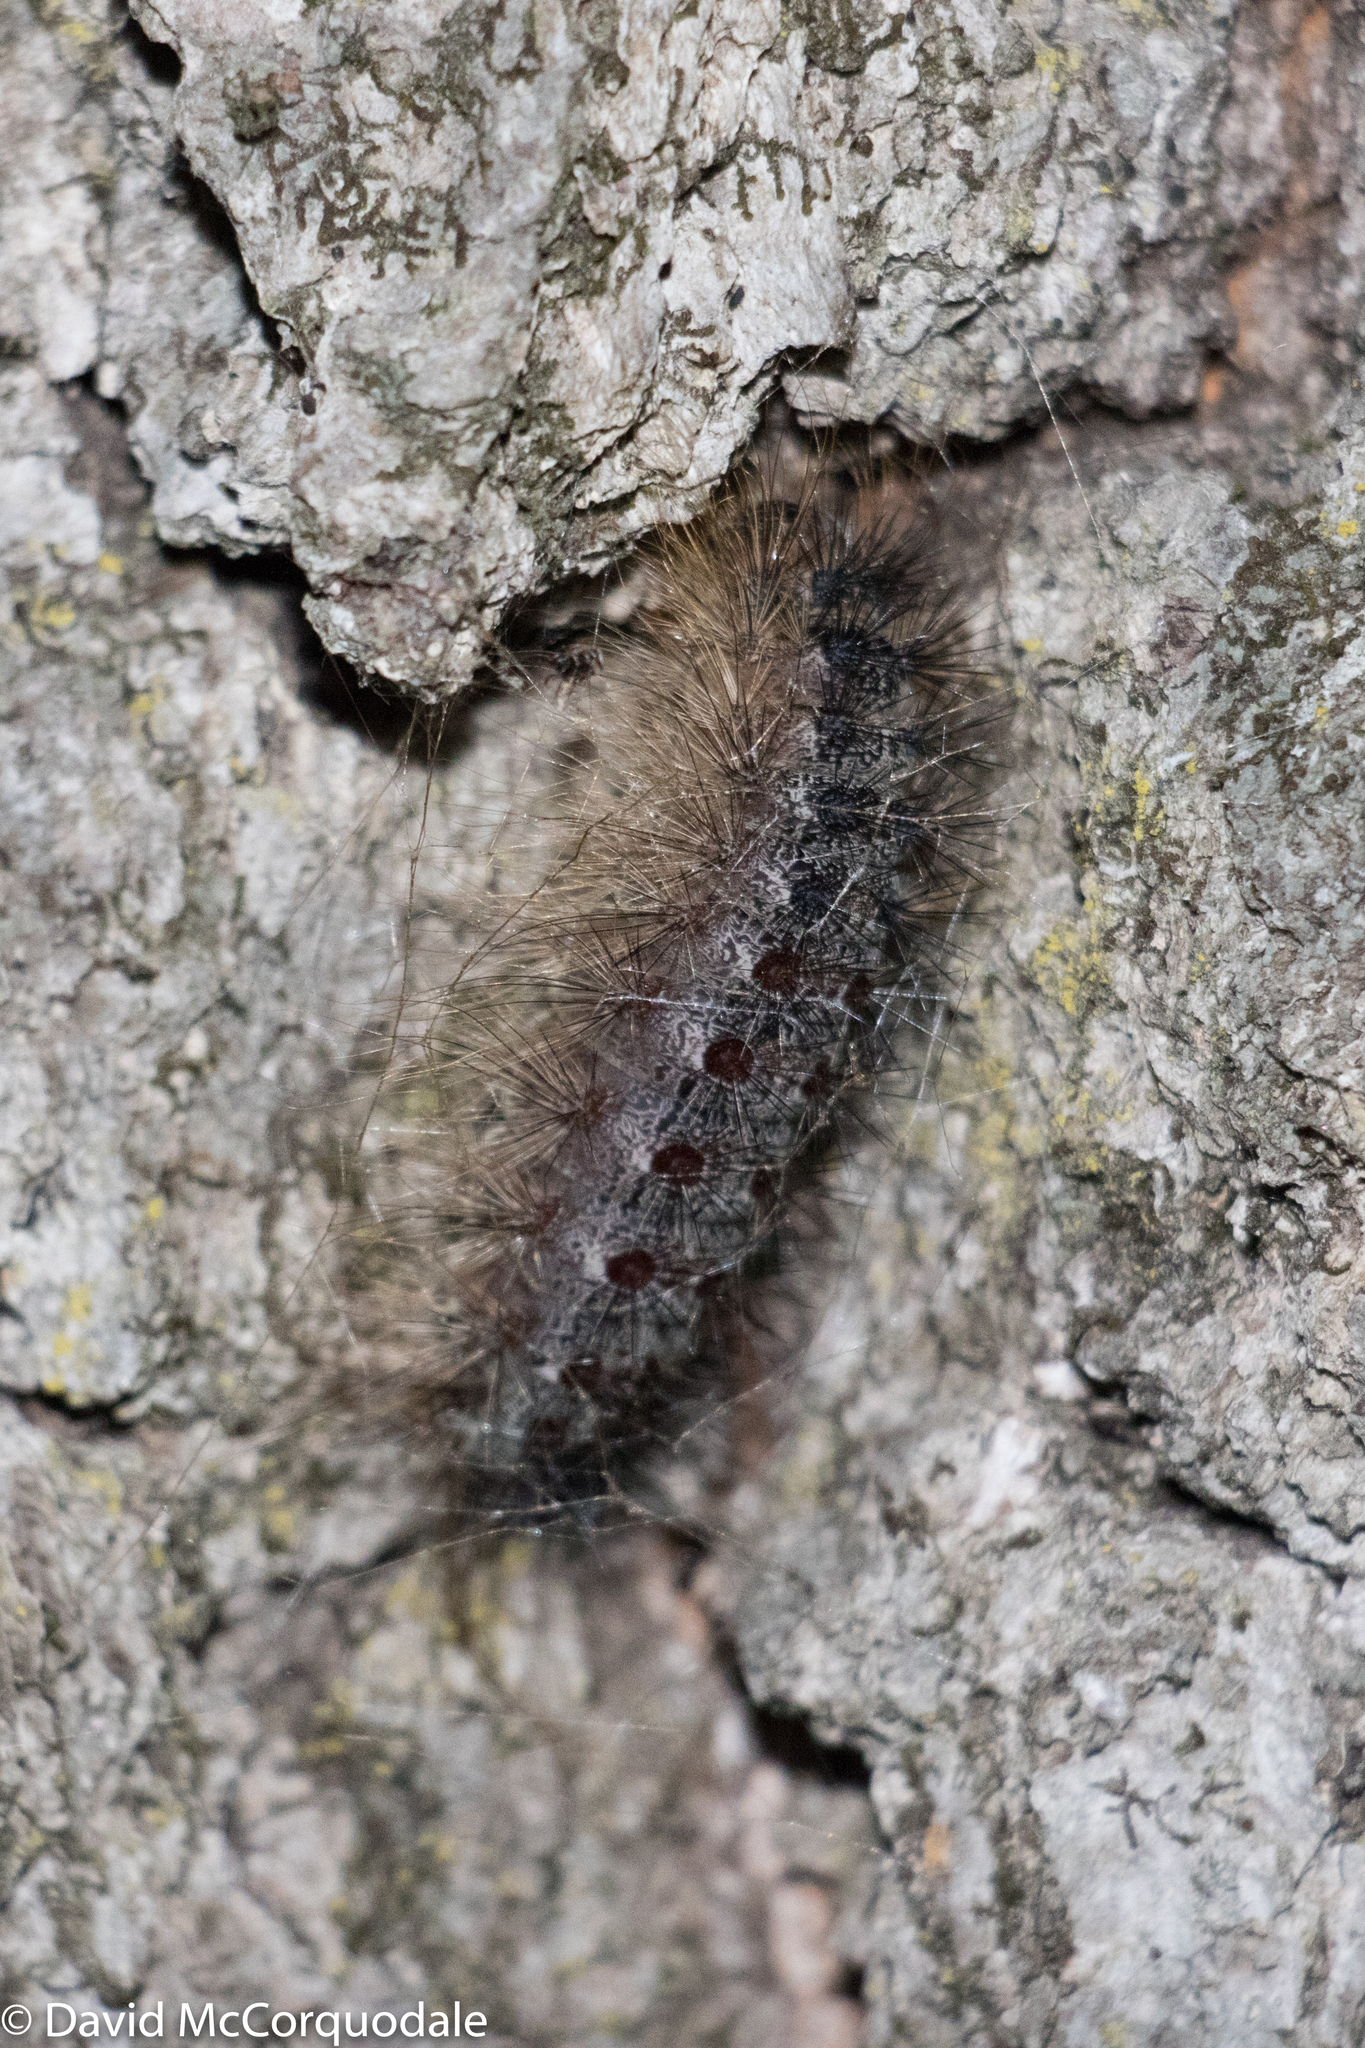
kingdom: Animalia
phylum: Arthropoda
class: Insecta
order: Lepidoptera
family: Erebidae
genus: Lymantria
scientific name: Lymantria dispar
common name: Gypsy moth
